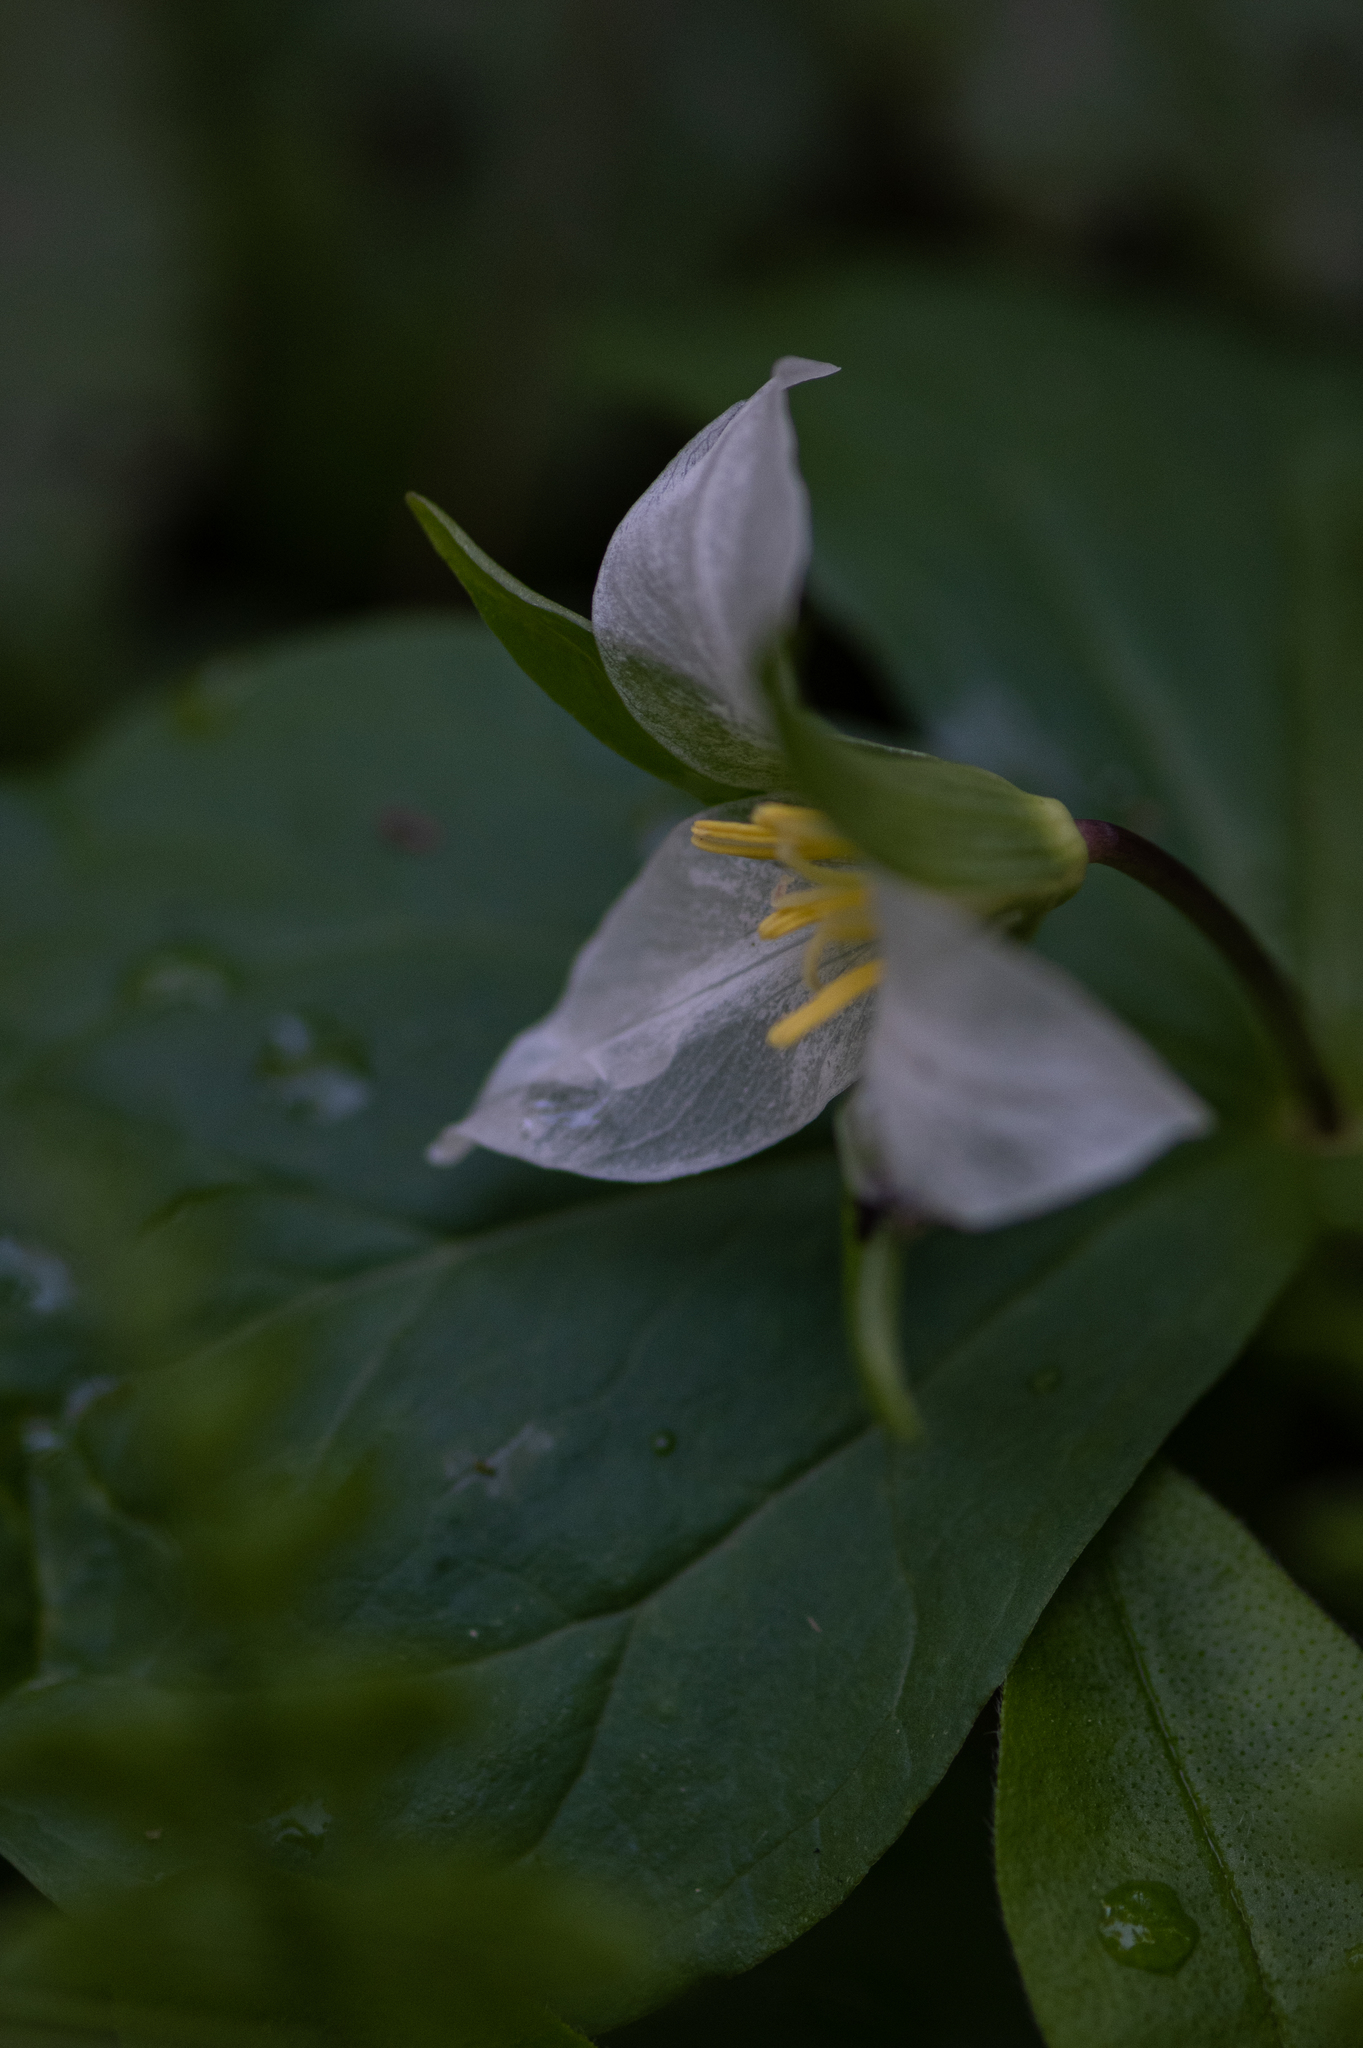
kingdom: Plantae
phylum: Tracheophyta
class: Liliopsida
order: Liliales
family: Melanthiaceae
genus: Trillium
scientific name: Trillium ovatum
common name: Pacific trillium
